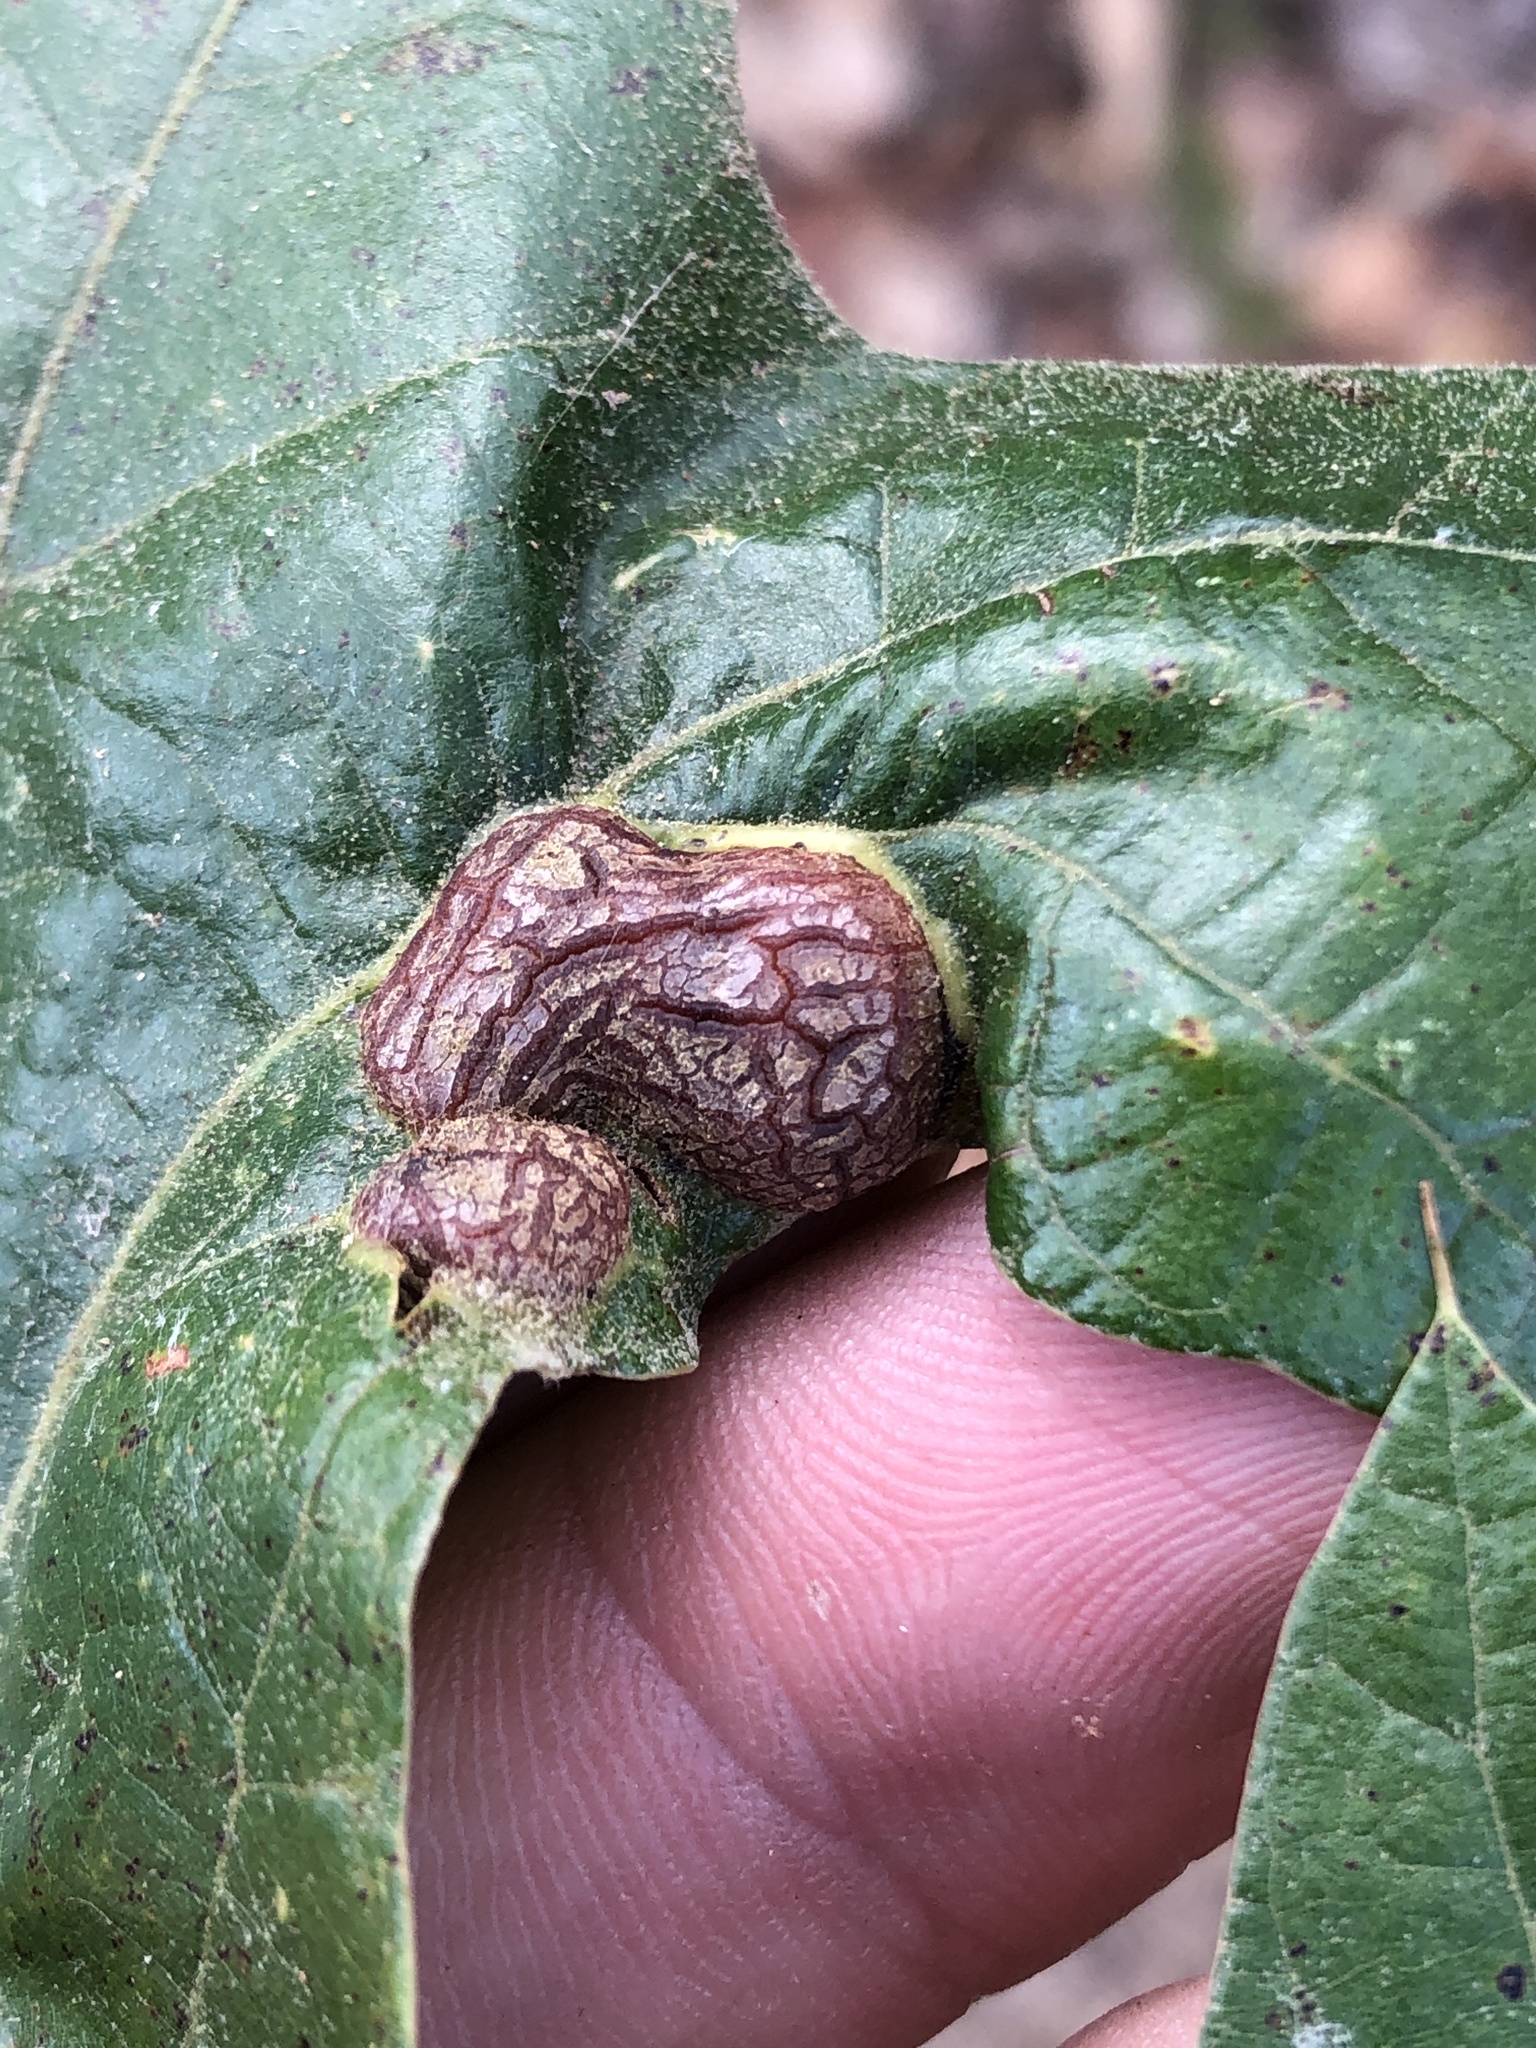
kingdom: Animalia
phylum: Arthropoda
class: Insecta
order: Diptera
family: Cecidomyiidae
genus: Polystepha
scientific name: Polystepha symmetrica
